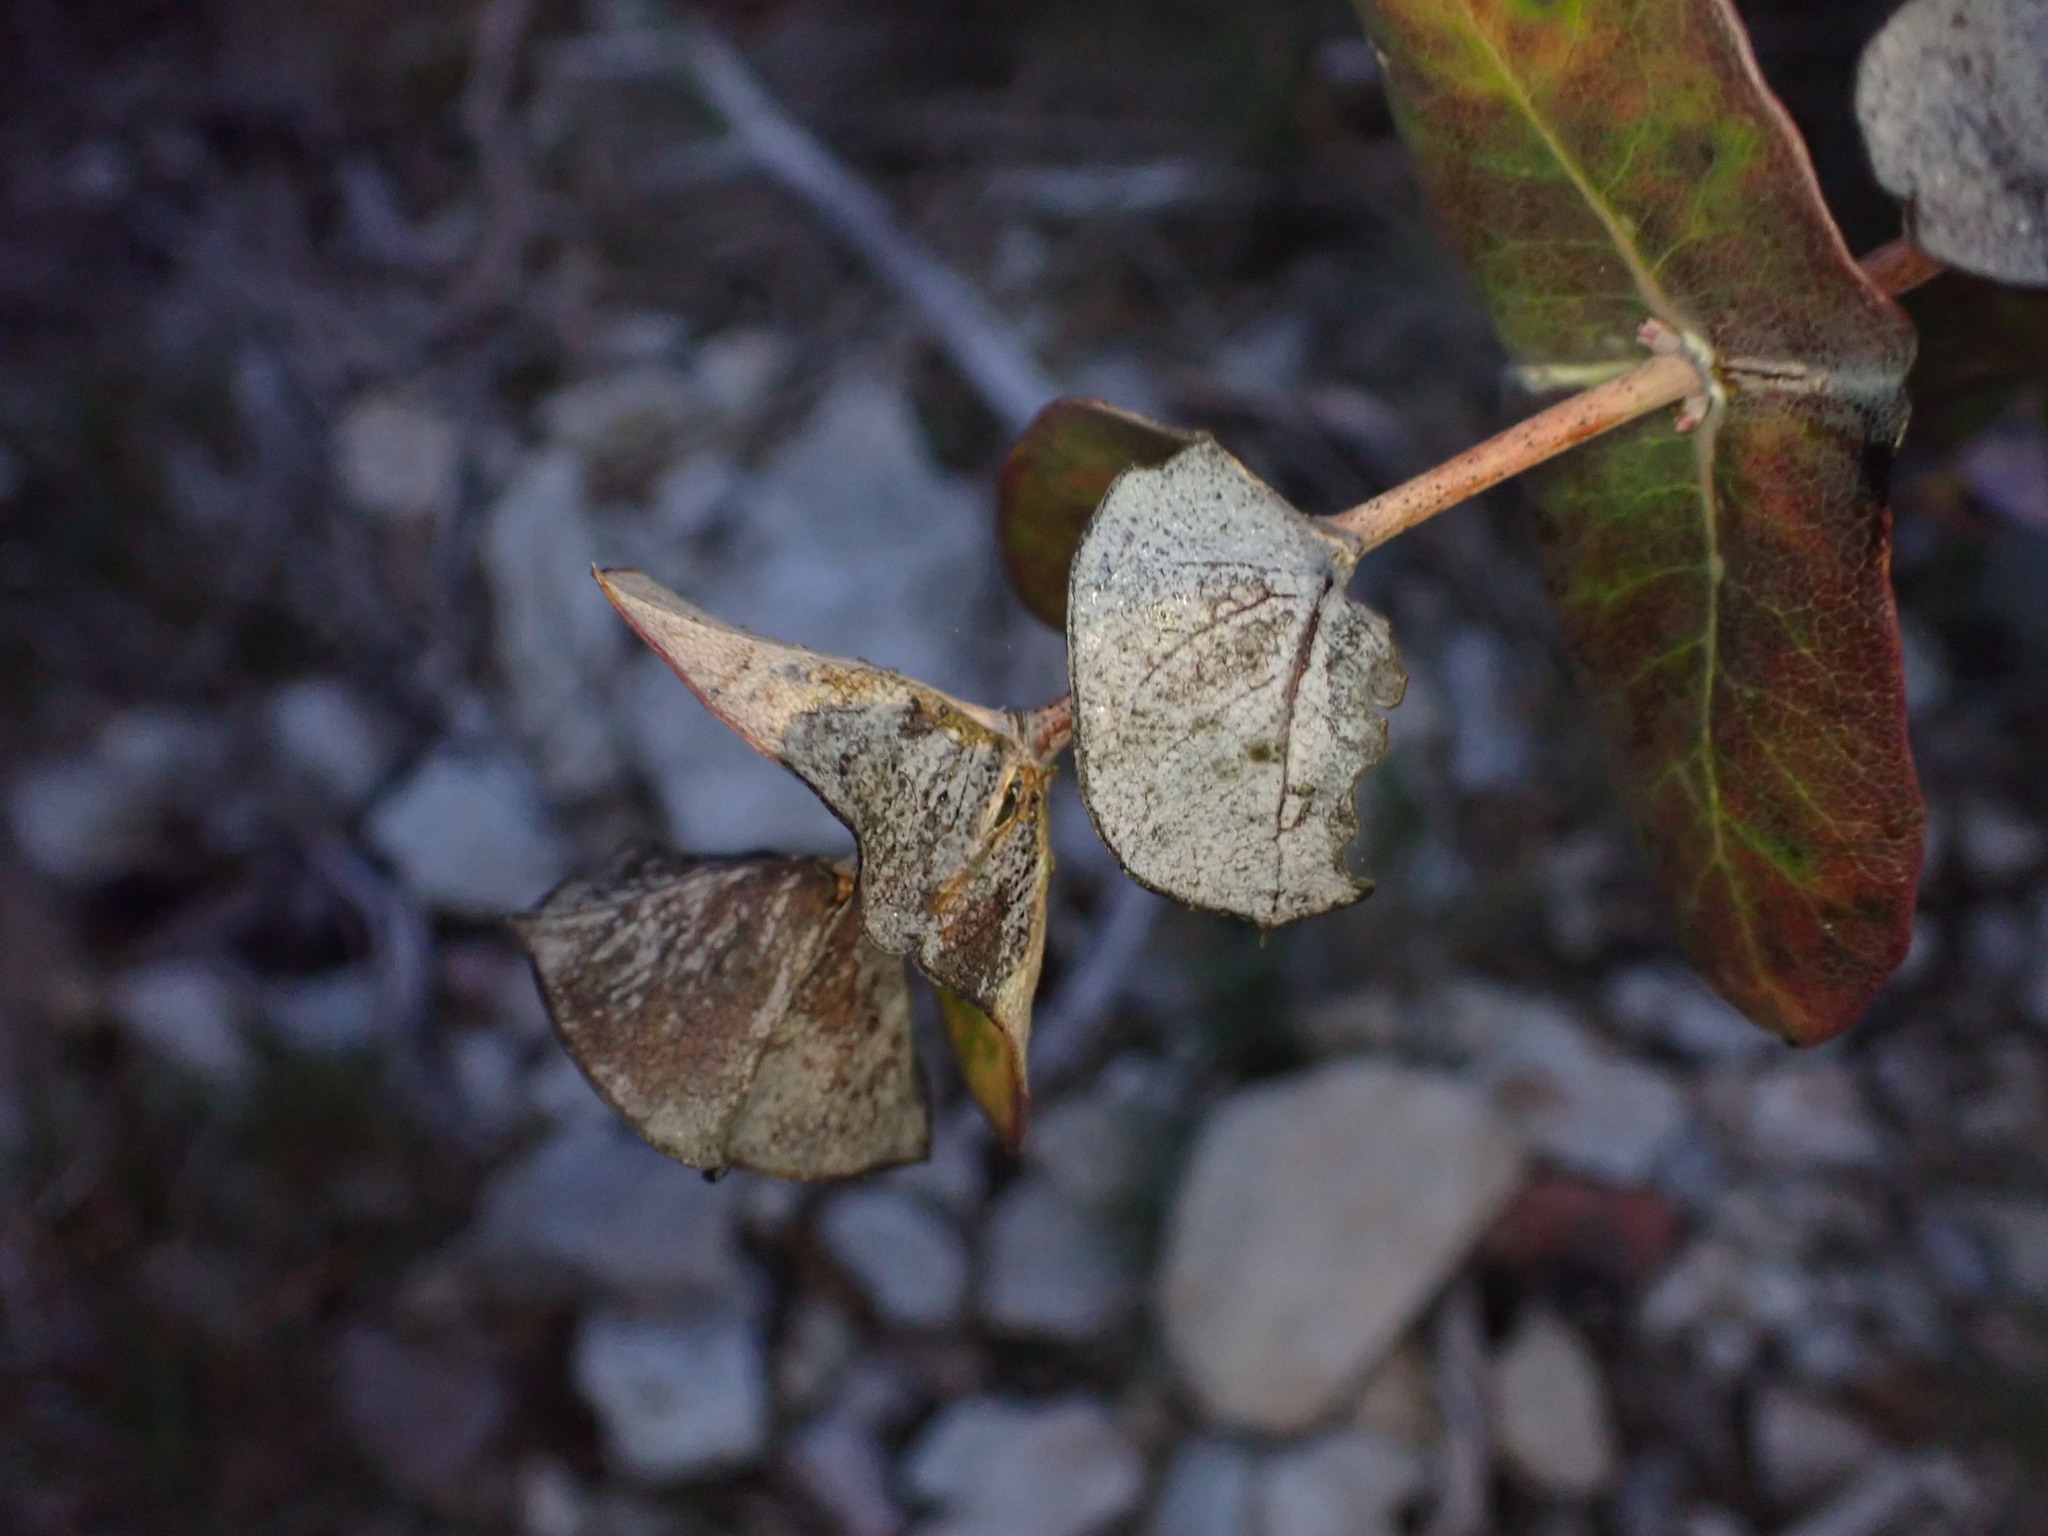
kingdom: Plantae
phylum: Tracheophyta
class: Magnoliopsida
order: Dipsacales
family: Caprifoliaceae
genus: Lonicera
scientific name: Lonicera implexa
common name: Minorca honeysuckle
